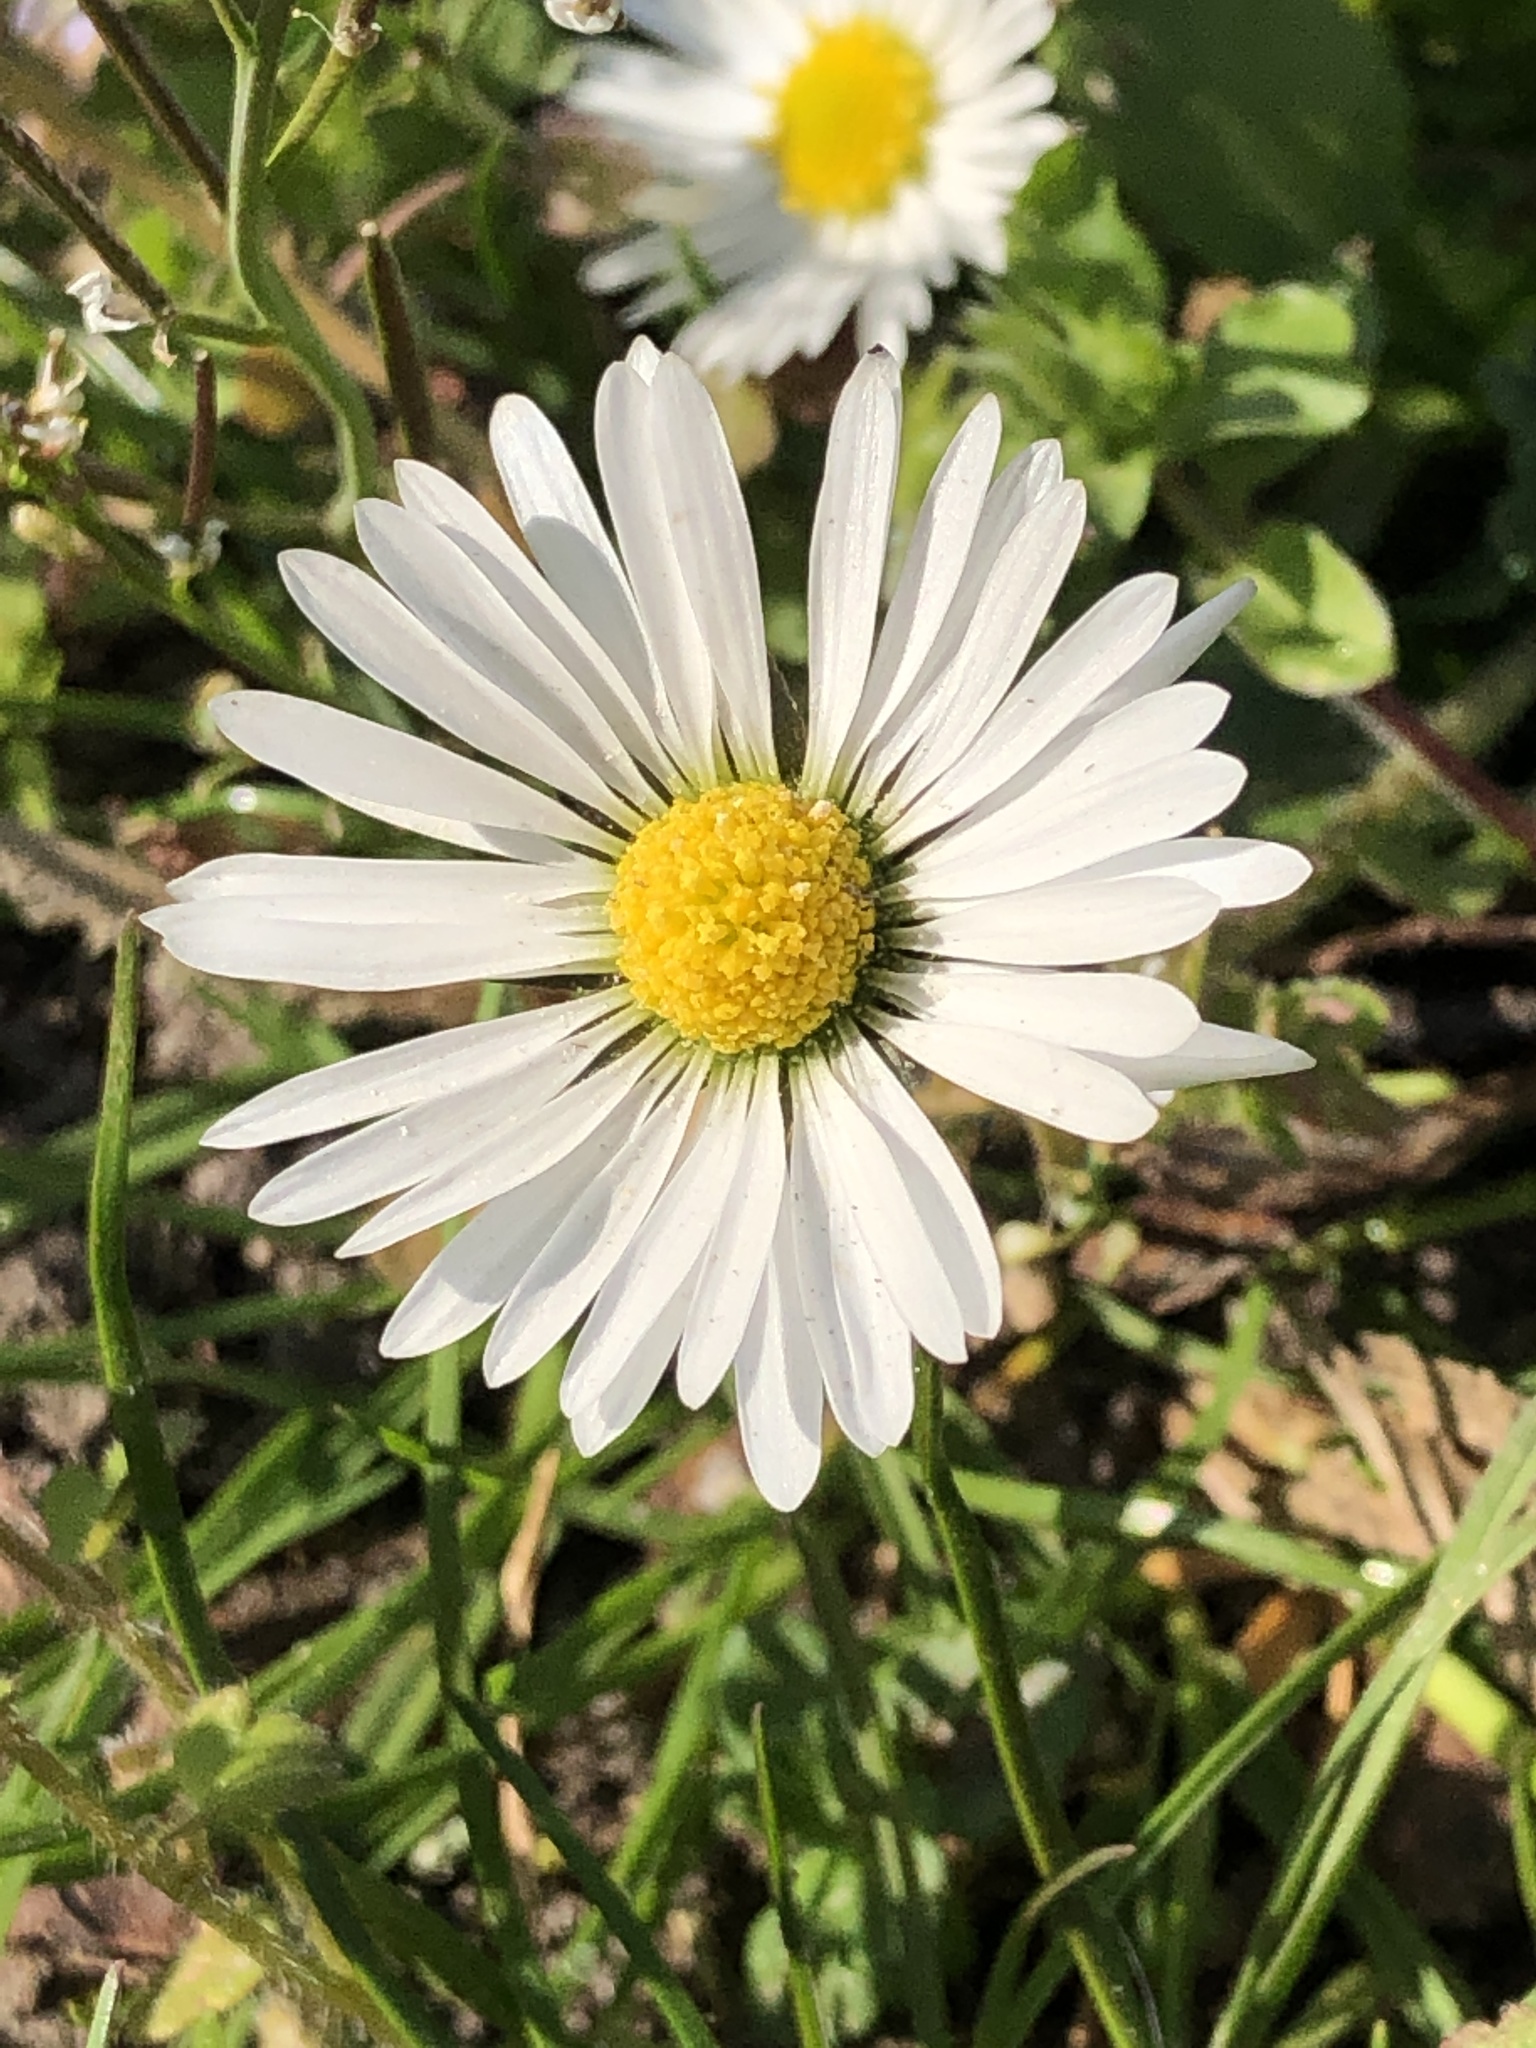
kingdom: Plantae
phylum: Tracheophyta
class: Magnoliopsida
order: Asterales
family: Asteraceae
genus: Bellis
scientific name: Bellis perennis
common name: Lawndaisy
